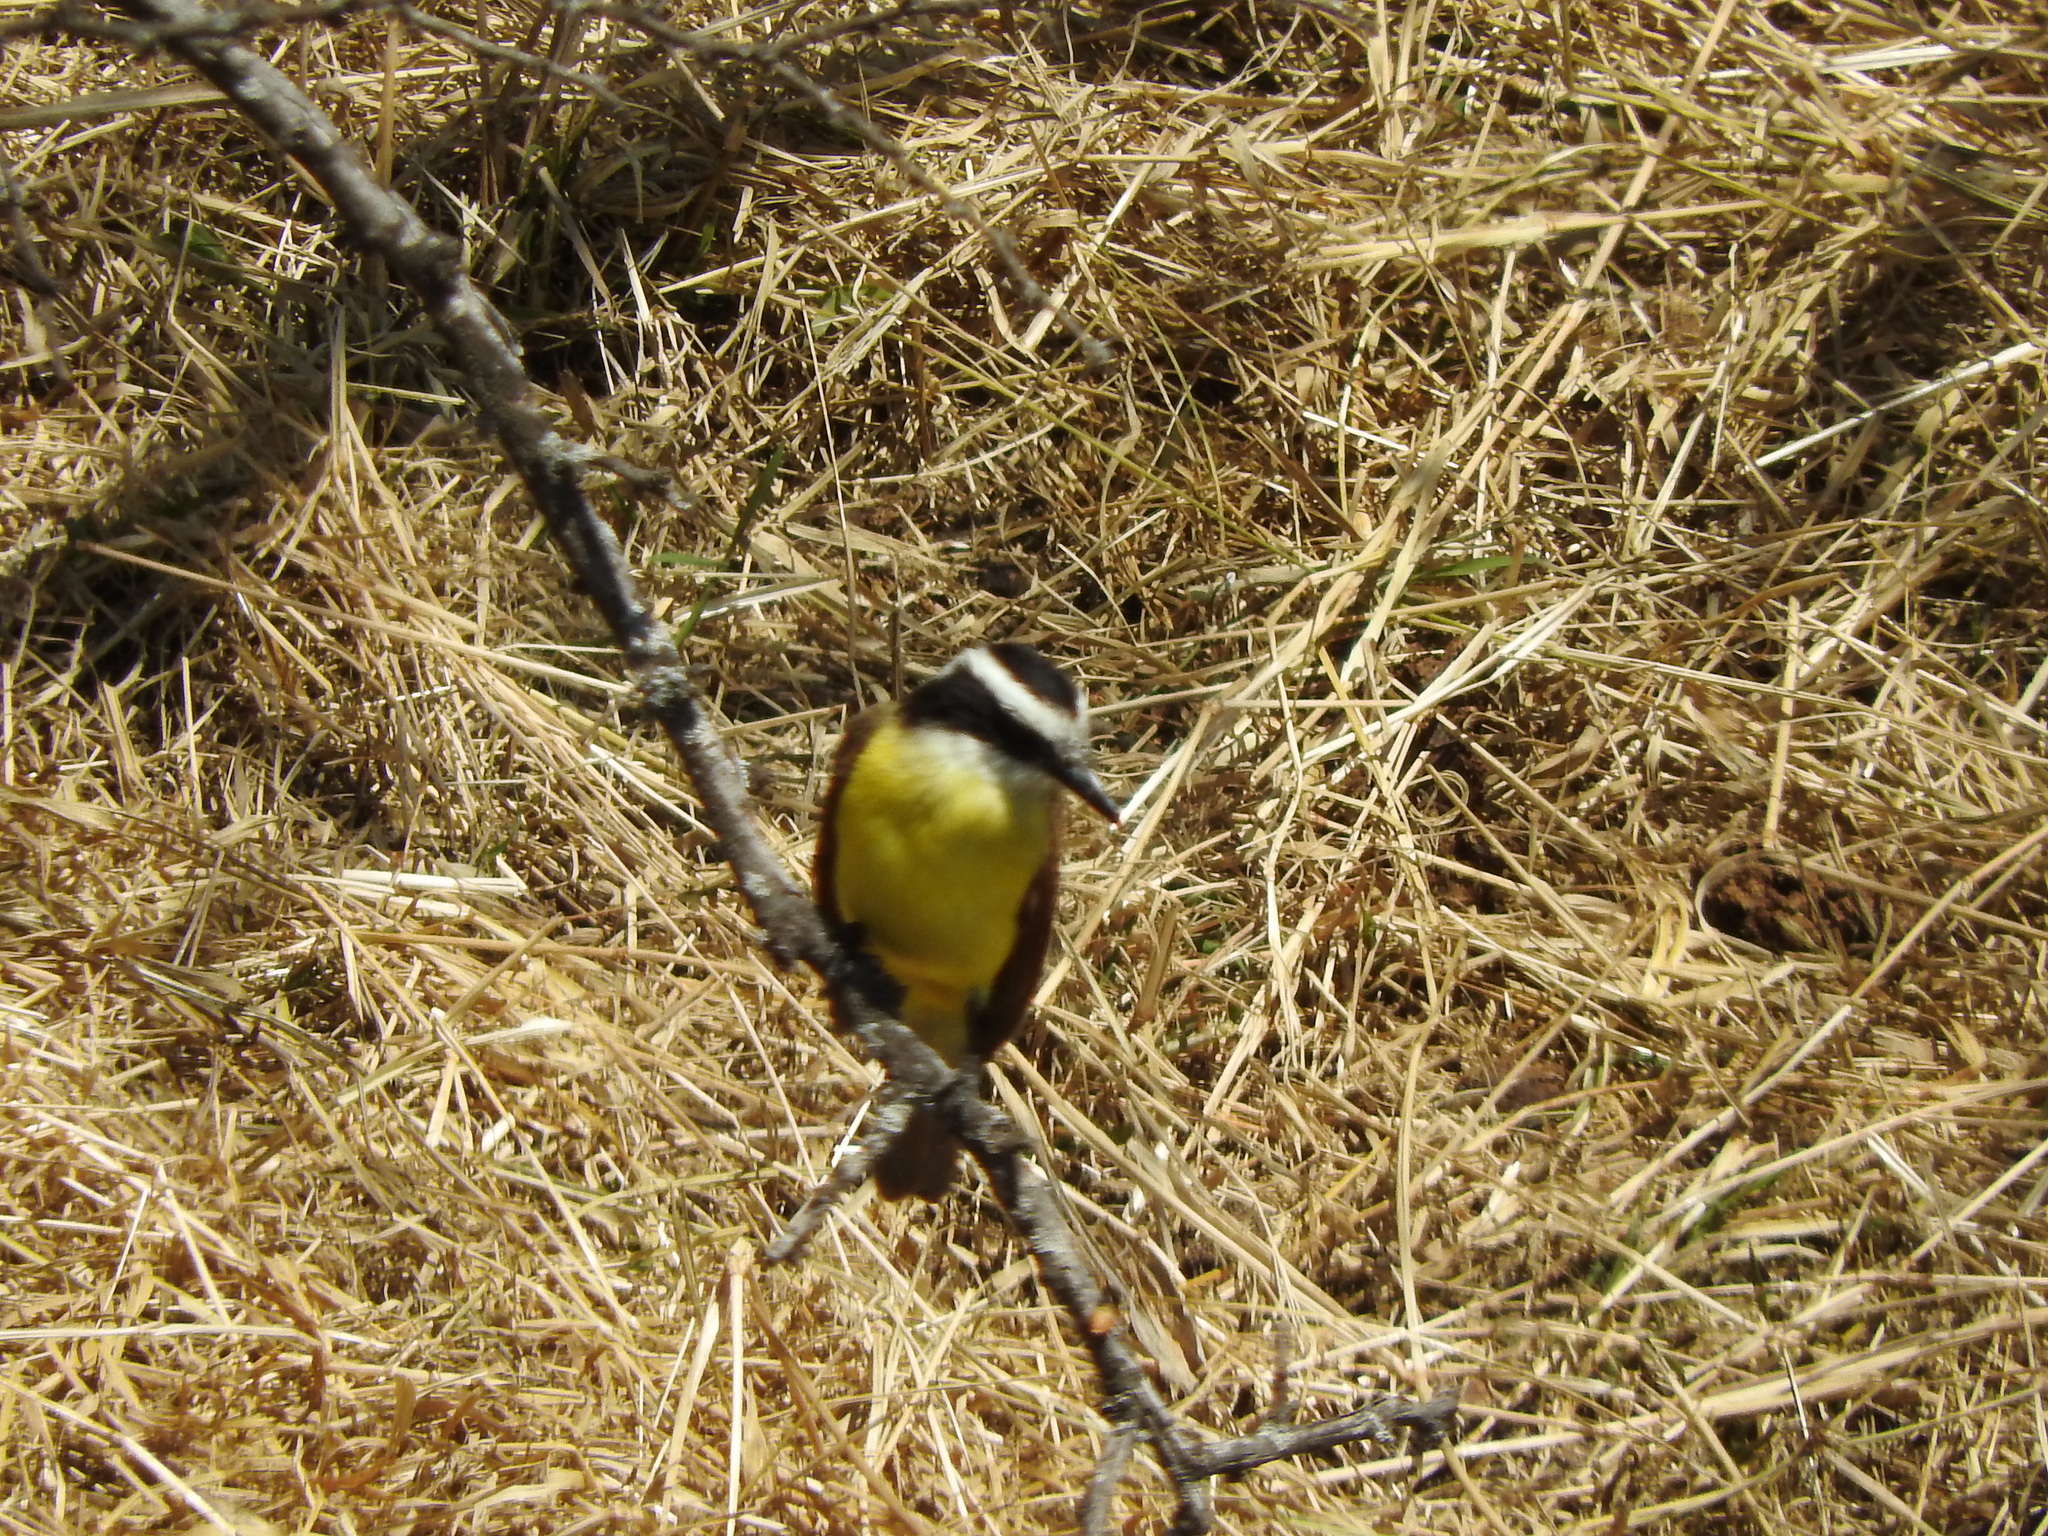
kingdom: Animalia
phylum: Chordata
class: Aves
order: Passeriformes
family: Tyrannidae
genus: Pitangus
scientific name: Pitangus sulphuratus
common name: Great kiskadee
